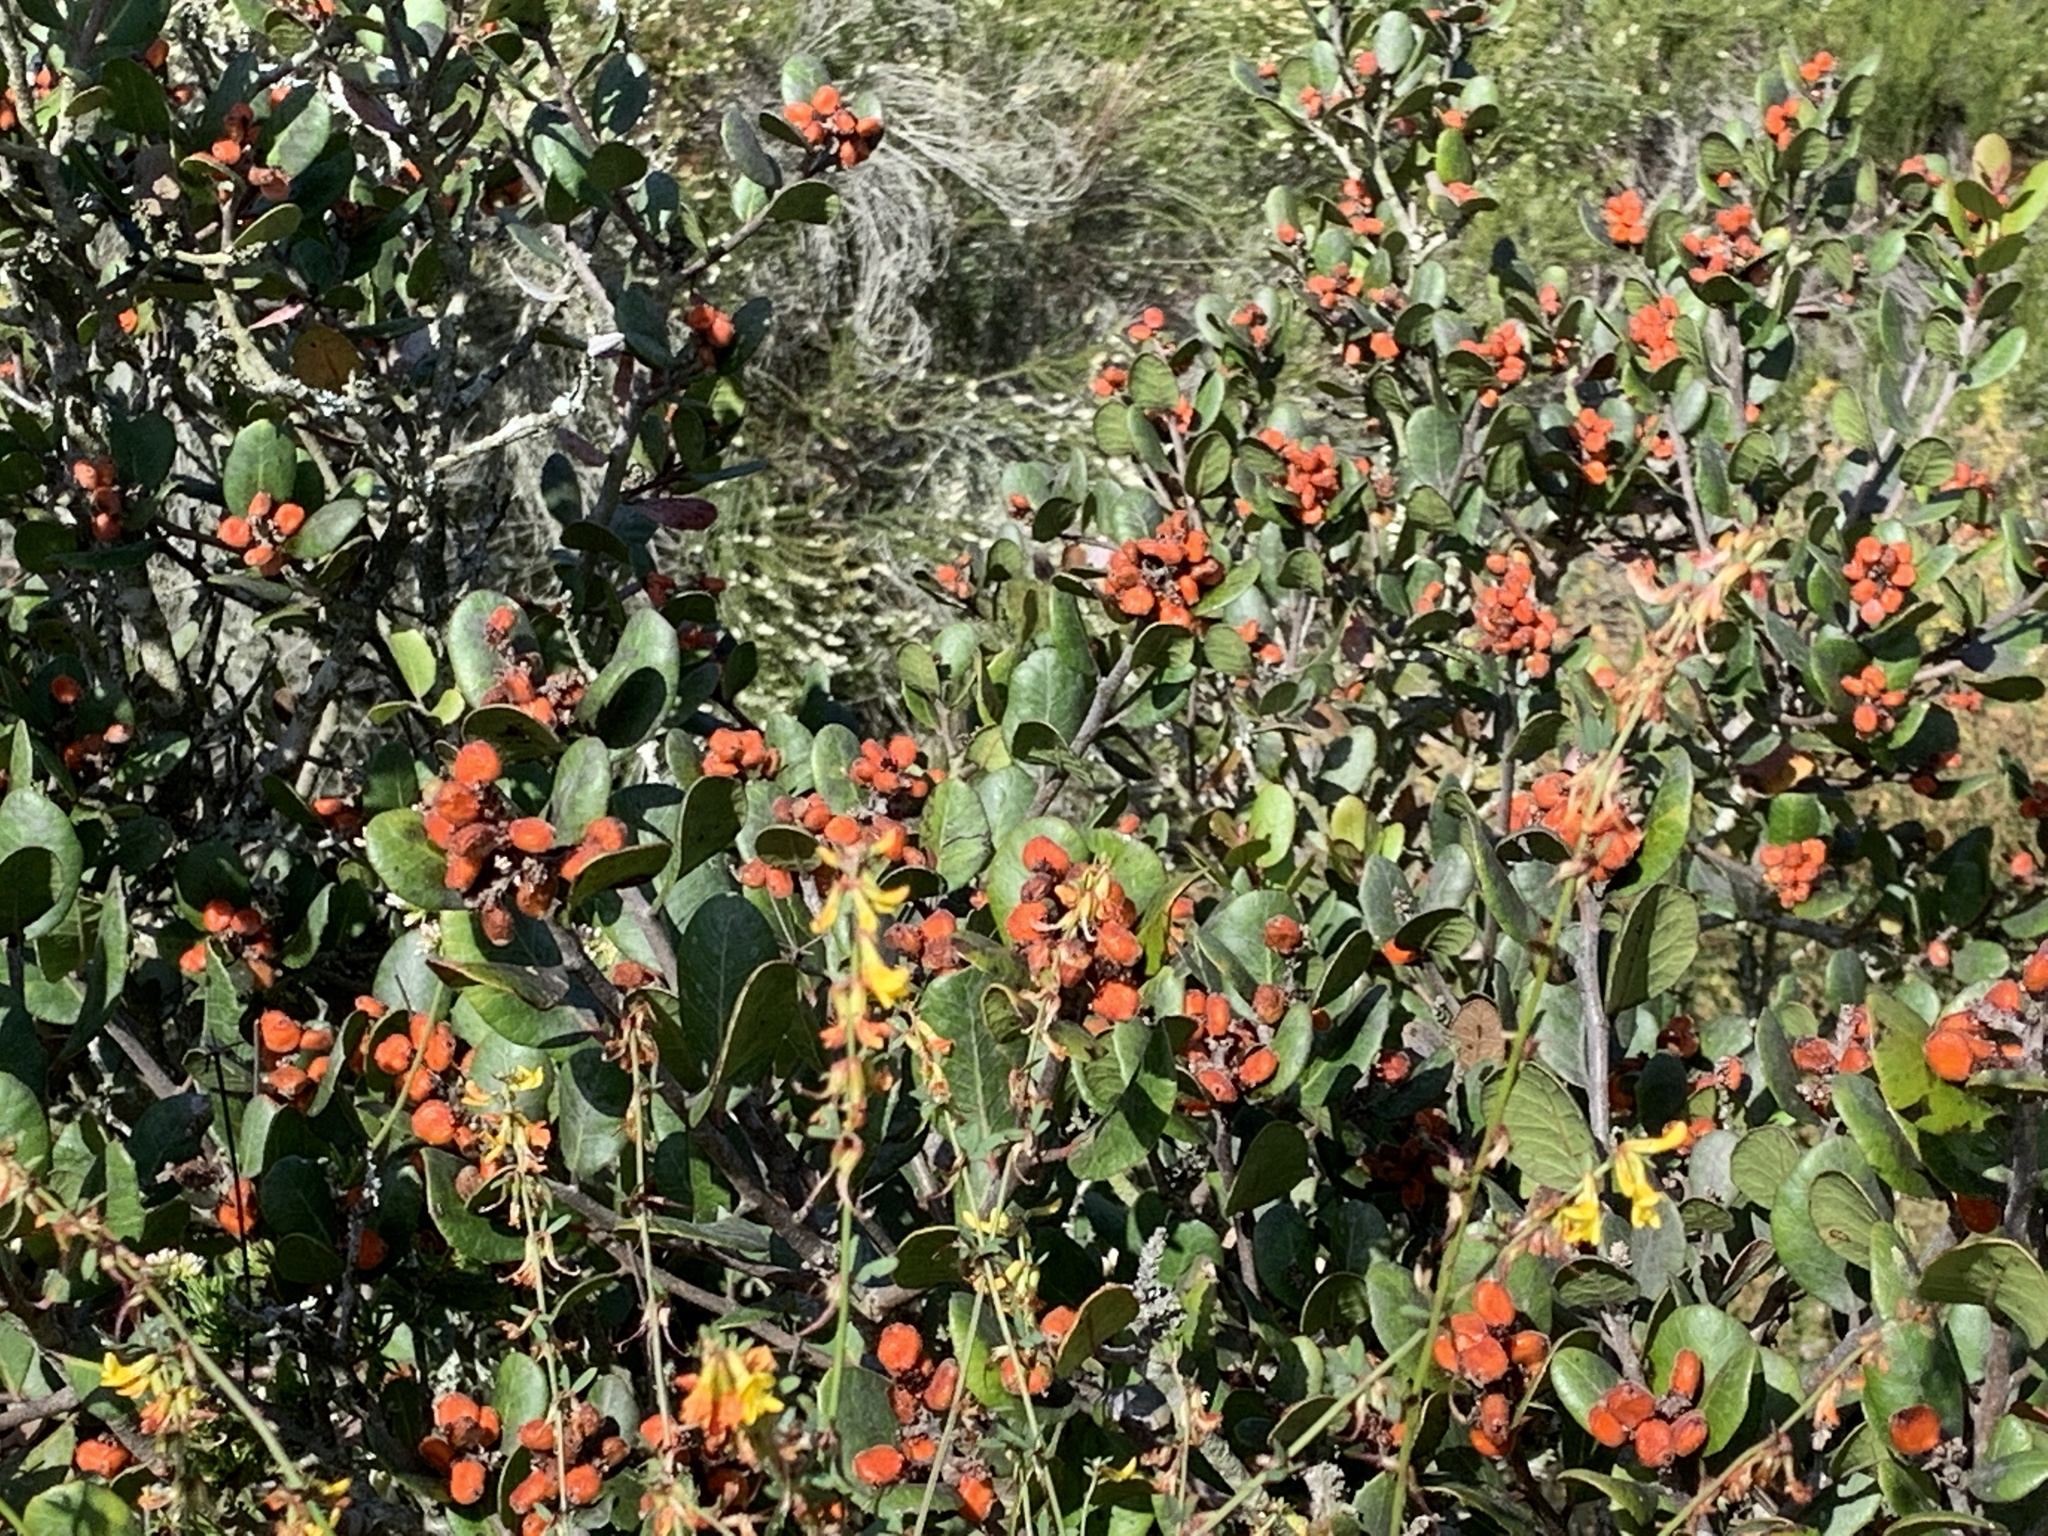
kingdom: Plantae
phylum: Tracheophyta
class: Magnoliopsida
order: Sapindales
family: Anacardiaceae
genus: Rhus
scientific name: Rhus integrifolia
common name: Lemonade sumac
